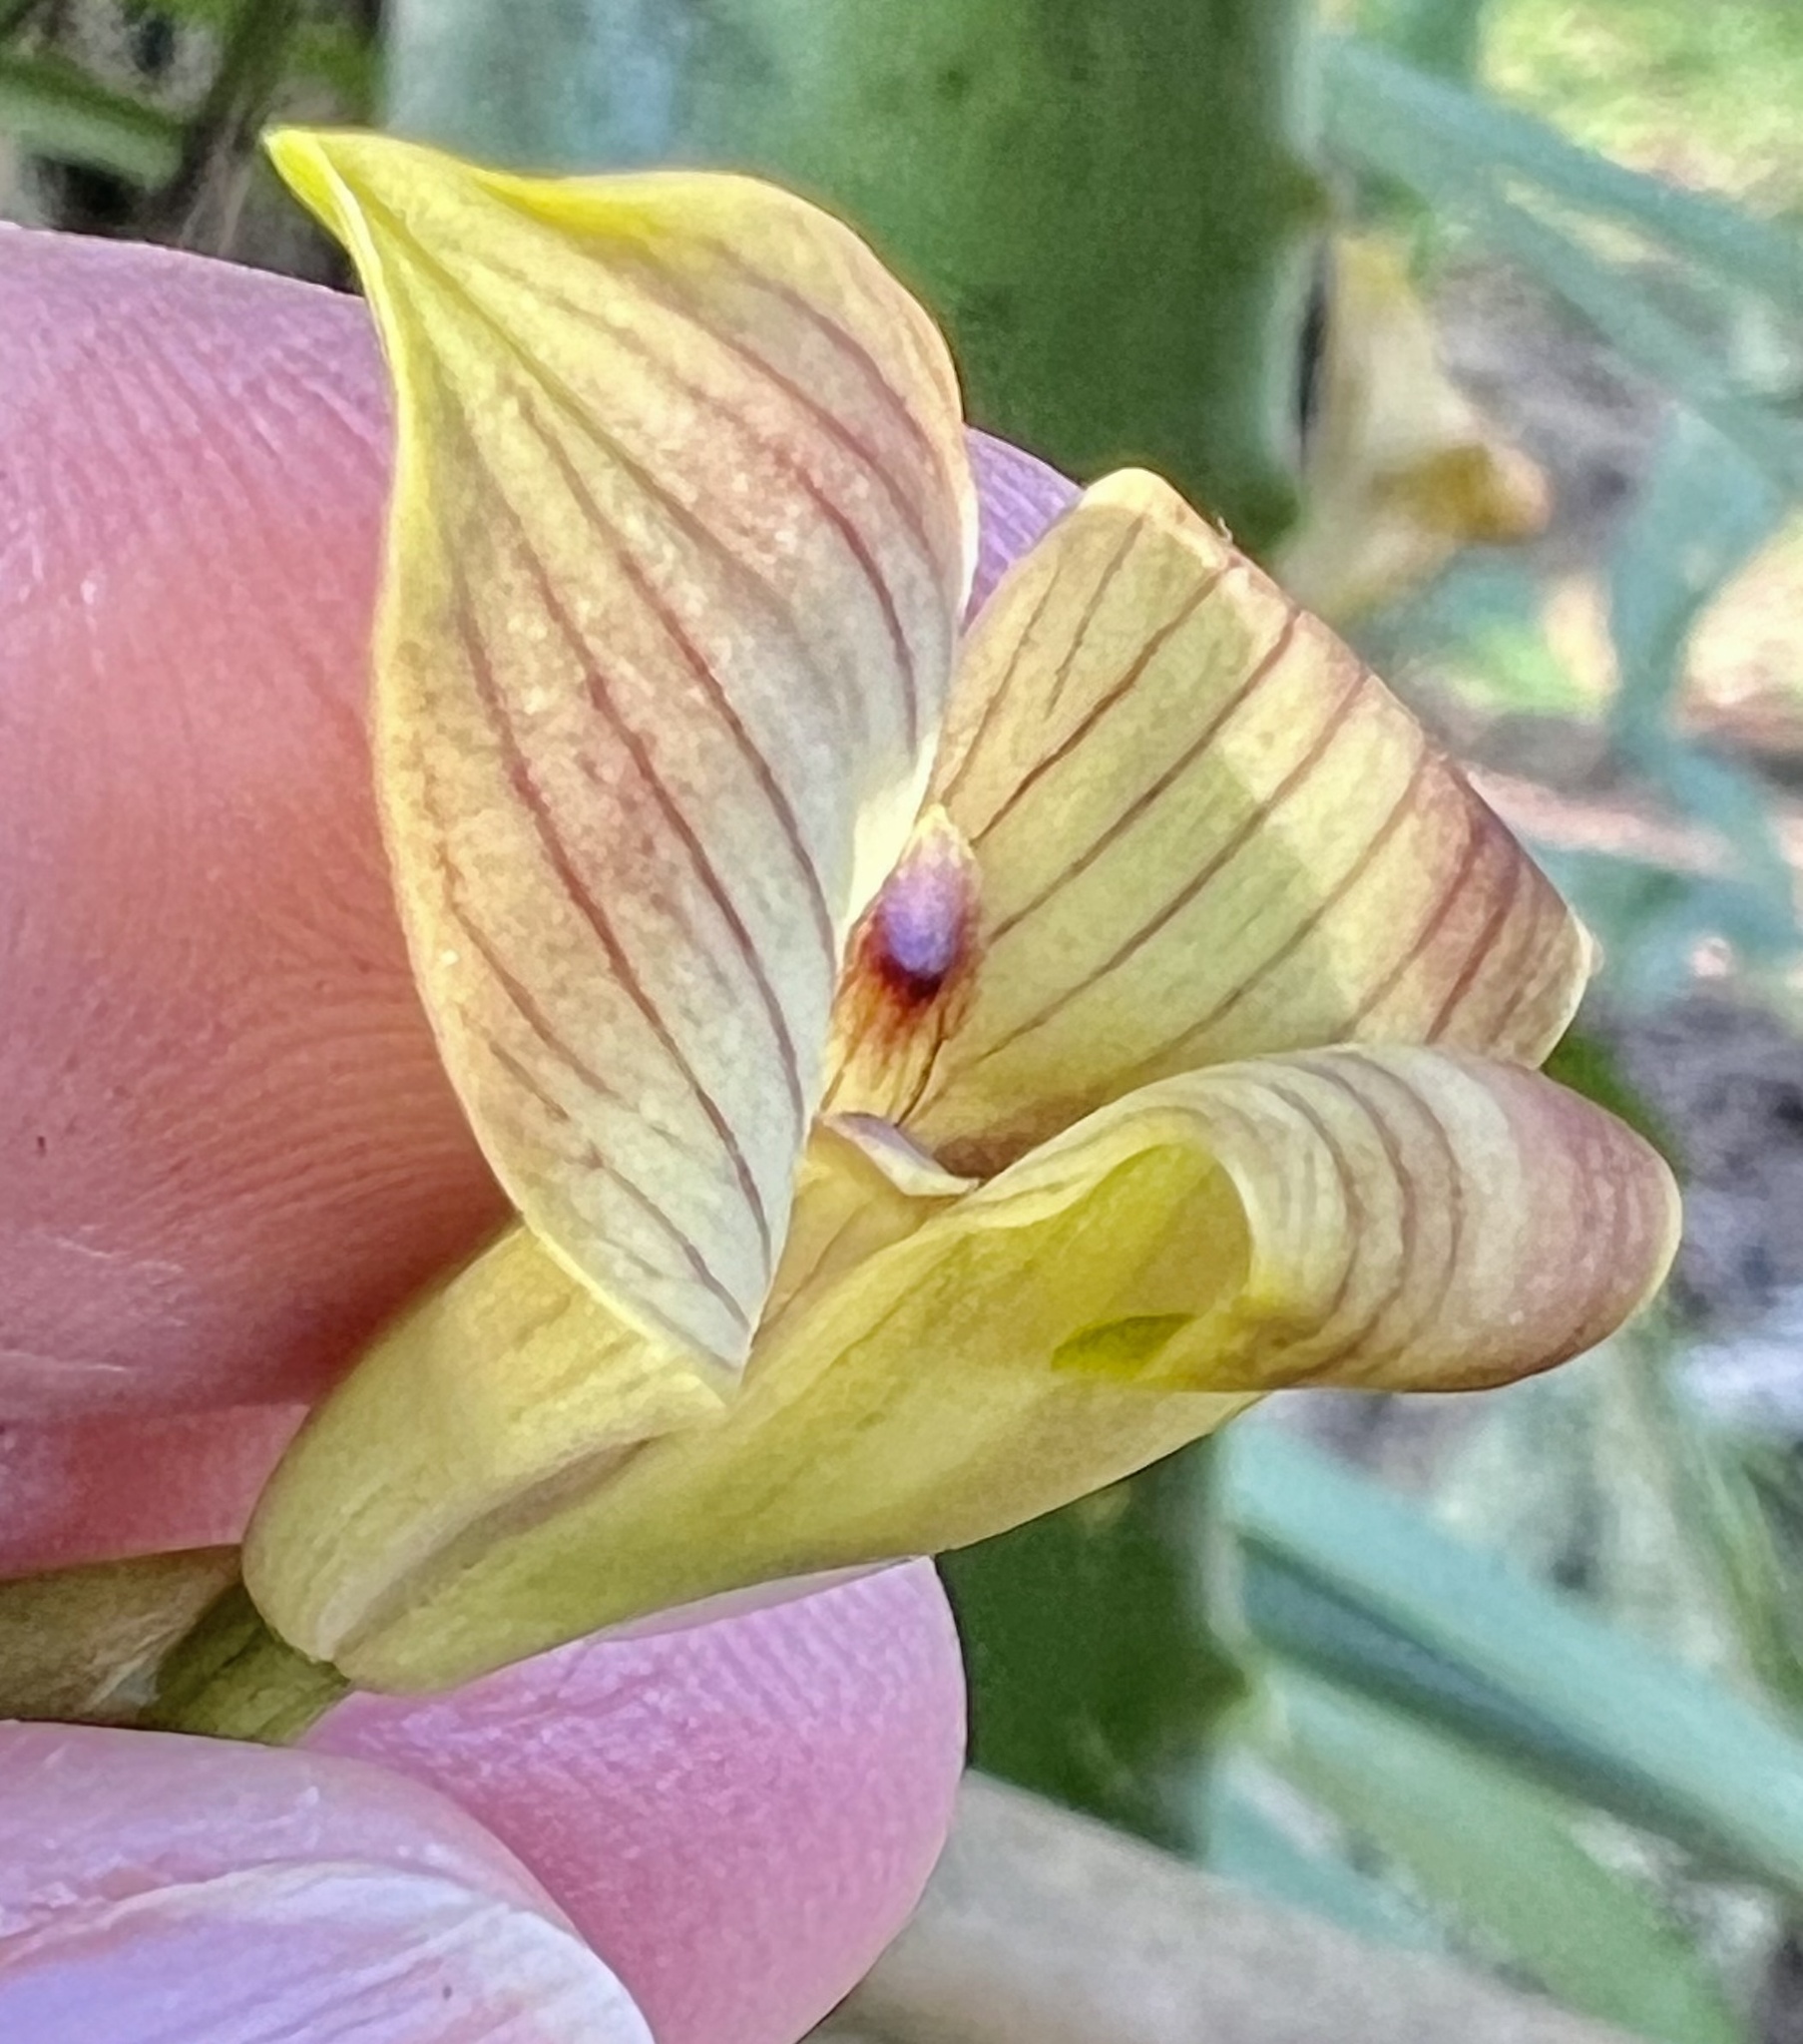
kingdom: Plantae
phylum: Tracheophyta
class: Liliopsida
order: Asparagales
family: Orchidaceae
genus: Maxillaria
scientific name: Maxillaria egertoniana
